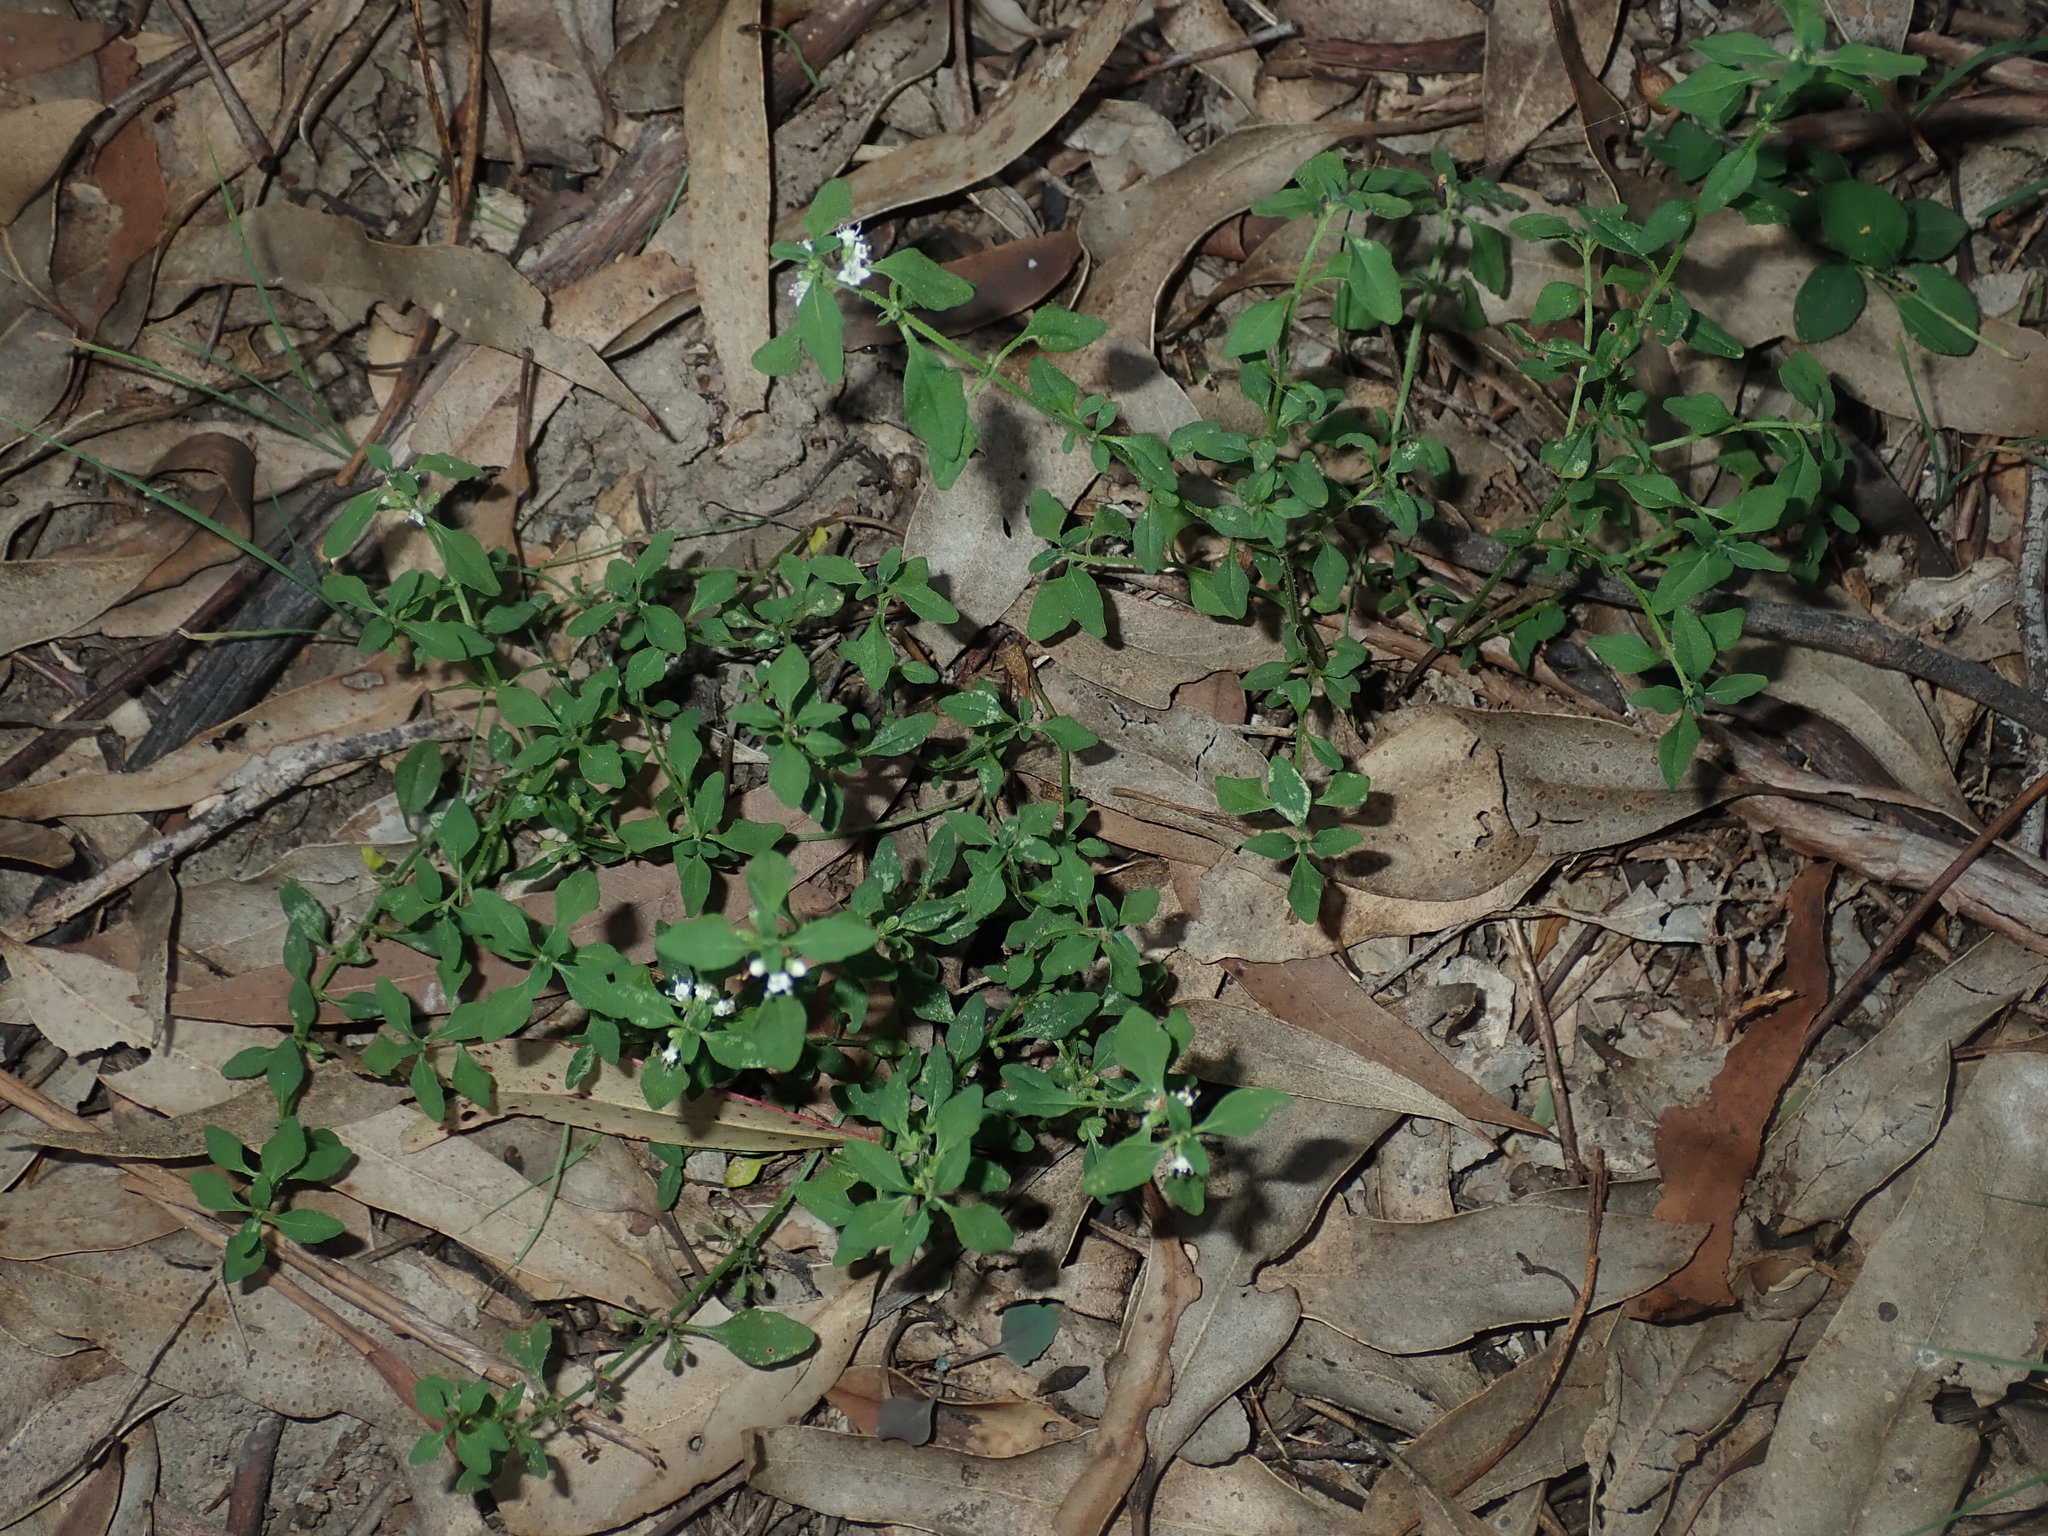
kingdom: Plantae
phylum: Tracheophyta
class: Magnoliopsida
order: Lamiales
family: Lamiaceae
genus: Mentha
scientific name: Mentha diemenica
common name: Wild mint
